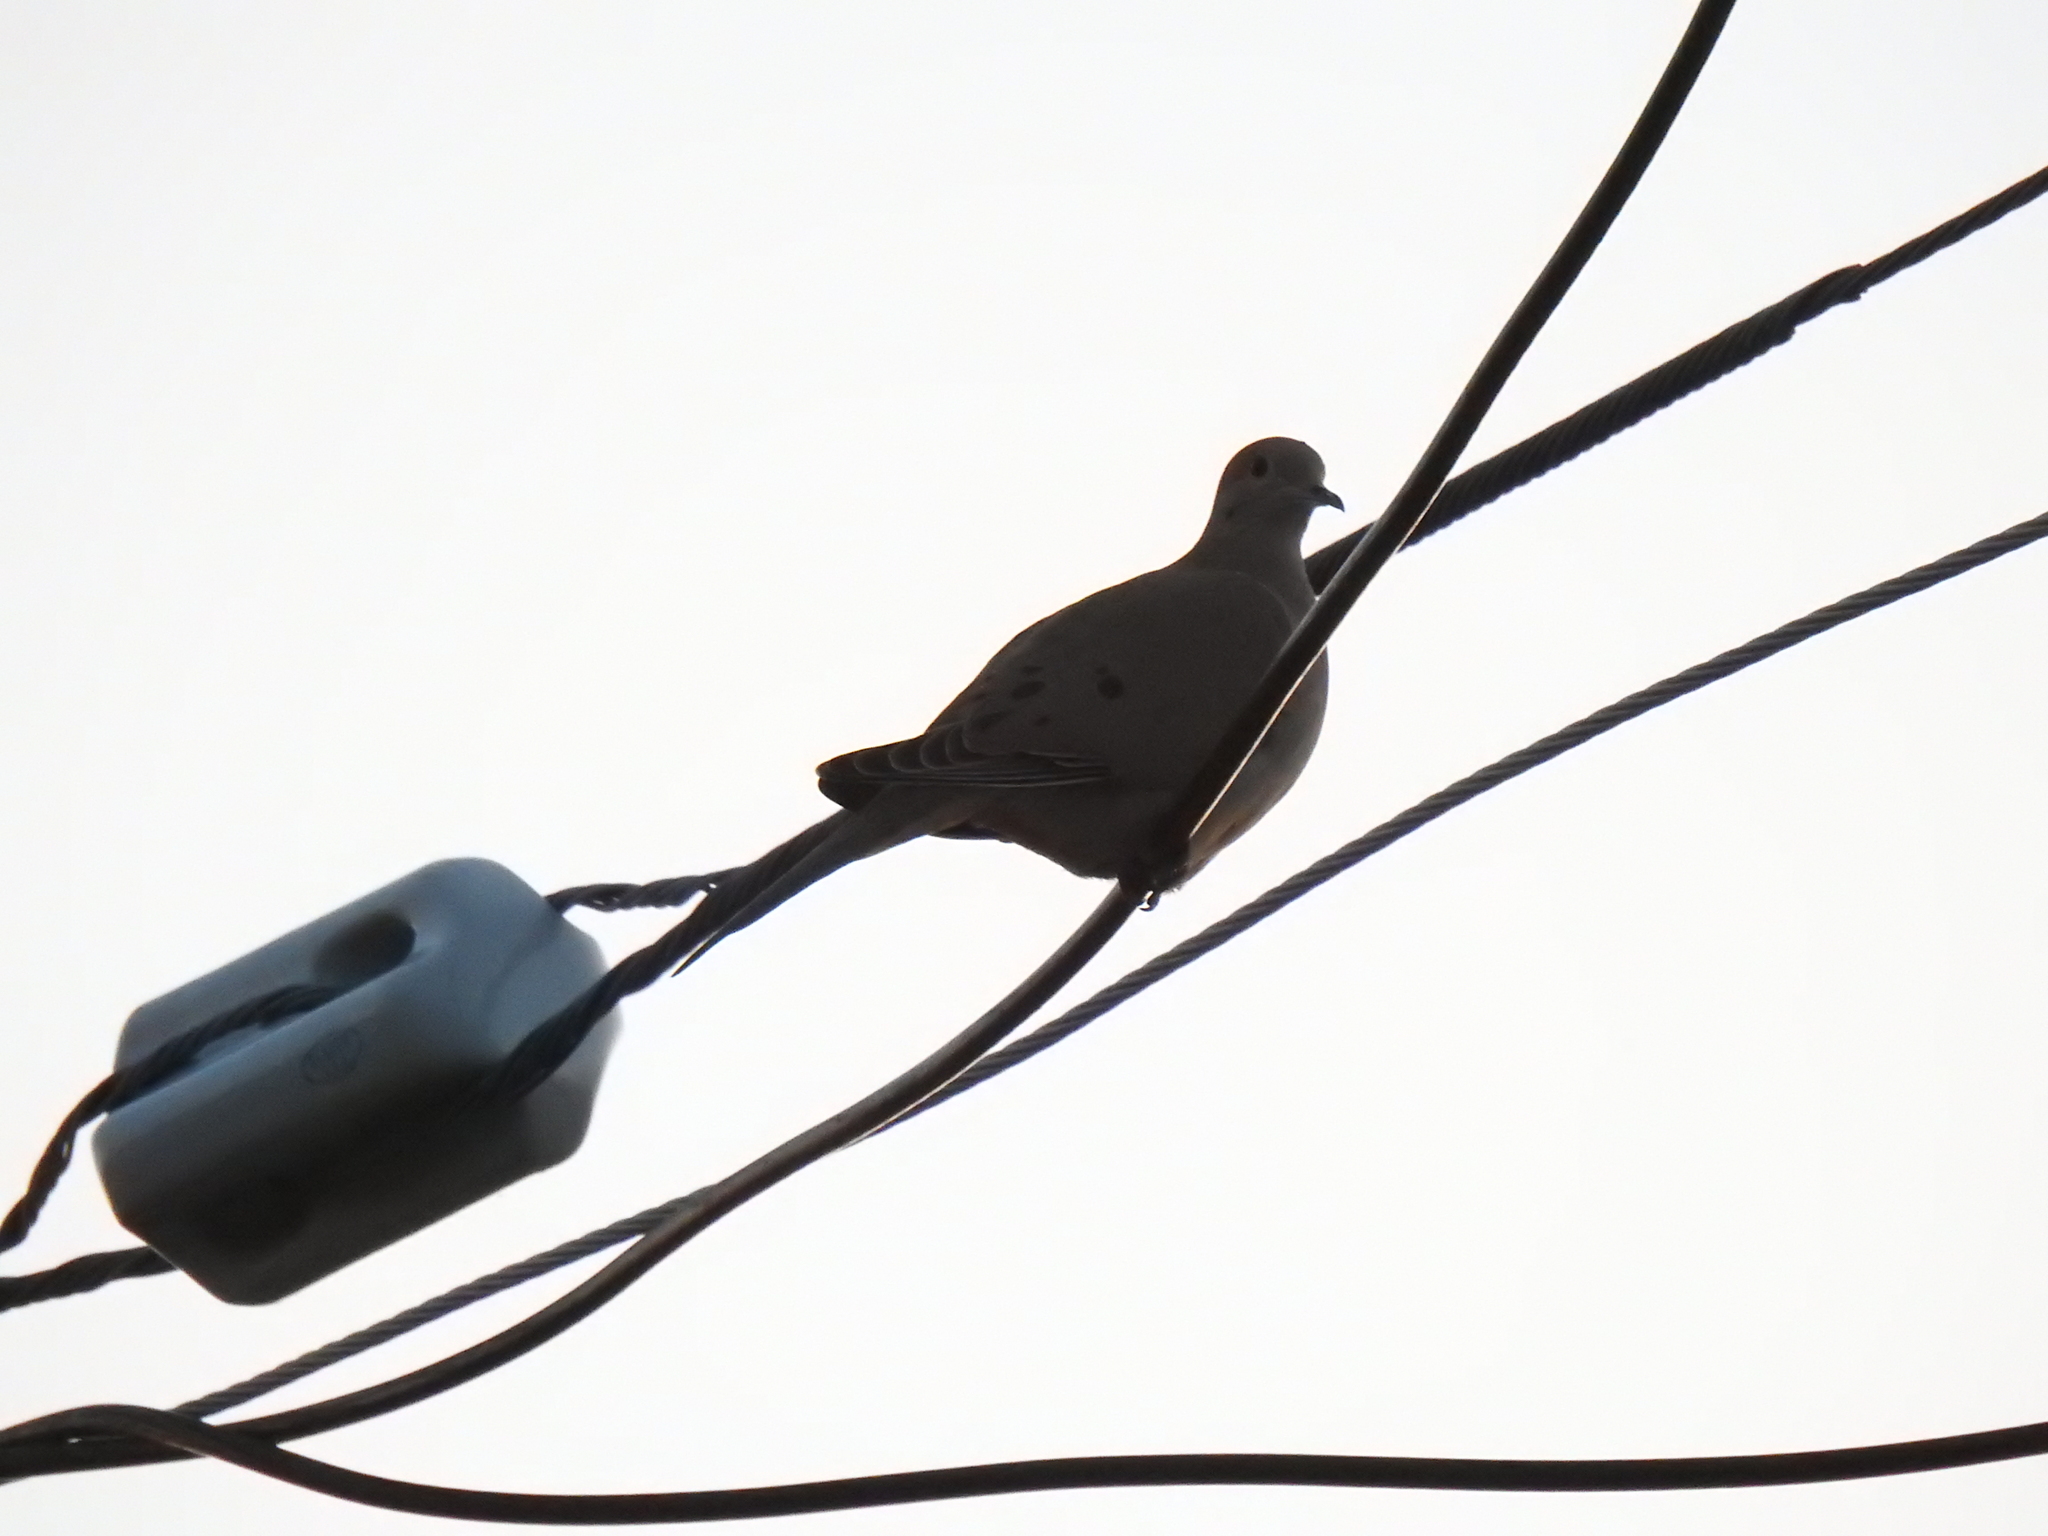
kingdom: Animalia
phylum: Chordata
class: Aves
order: Columbiformes
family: Columbidae
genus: Zenaida
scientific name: Zenaida macroura
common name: Mourning dove
